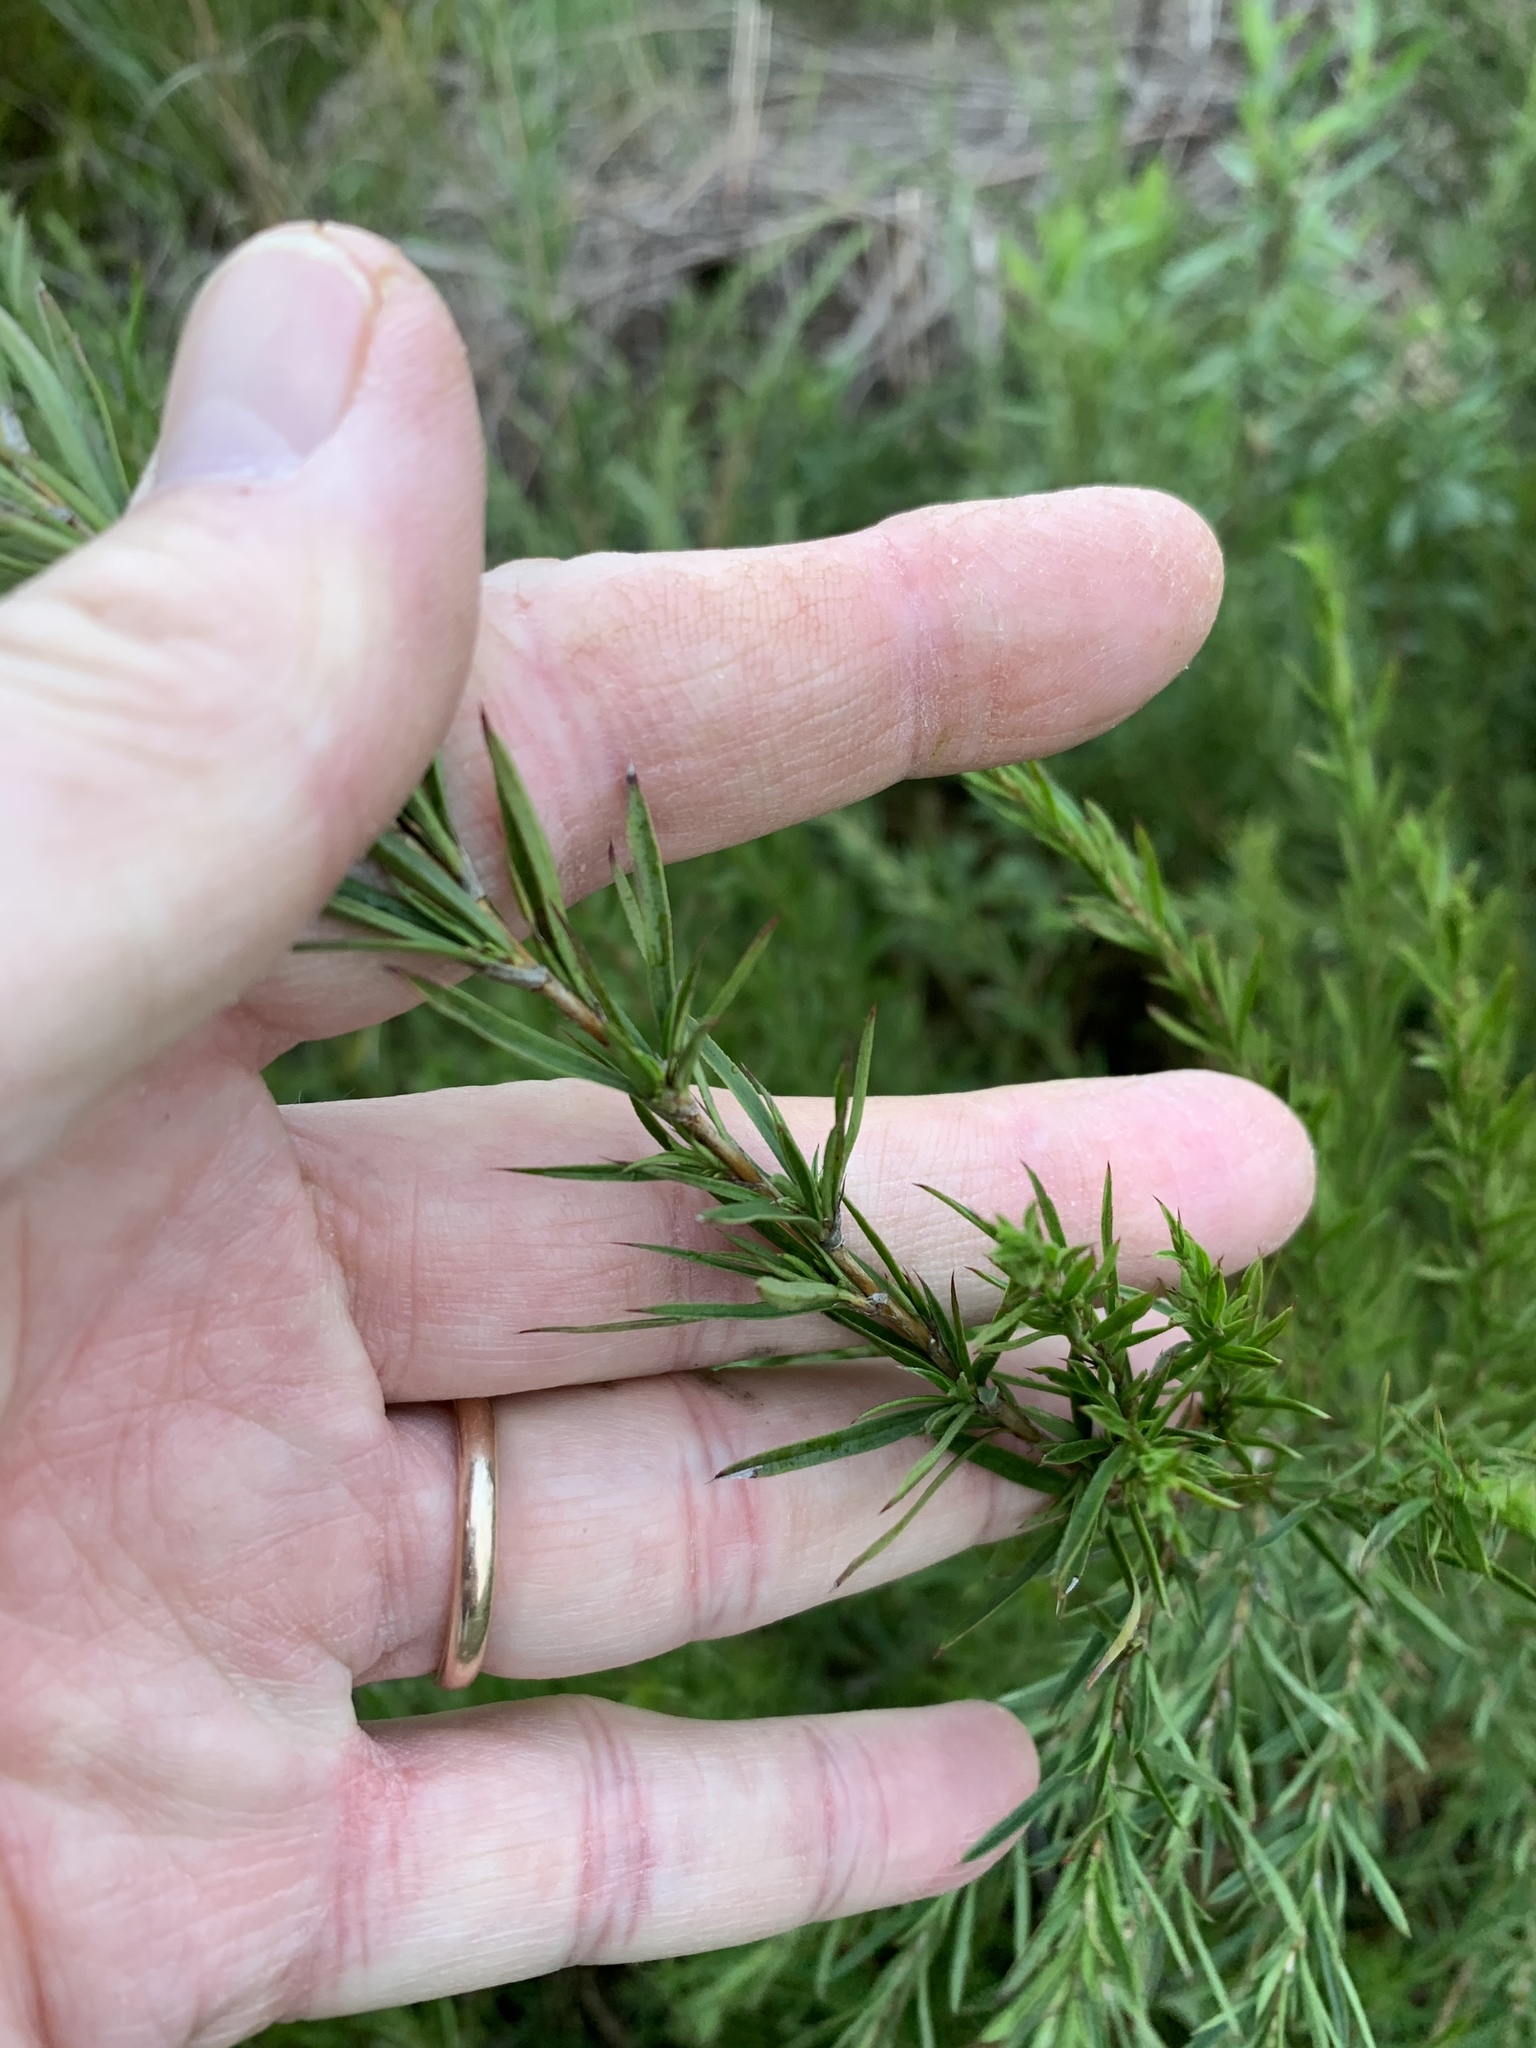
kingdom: Plantae
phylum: Tracheophyta
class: Magnoliopsida
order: Rosales
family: Rosaceae
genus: Cliffortia
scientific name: Cliffortia strobilifera
